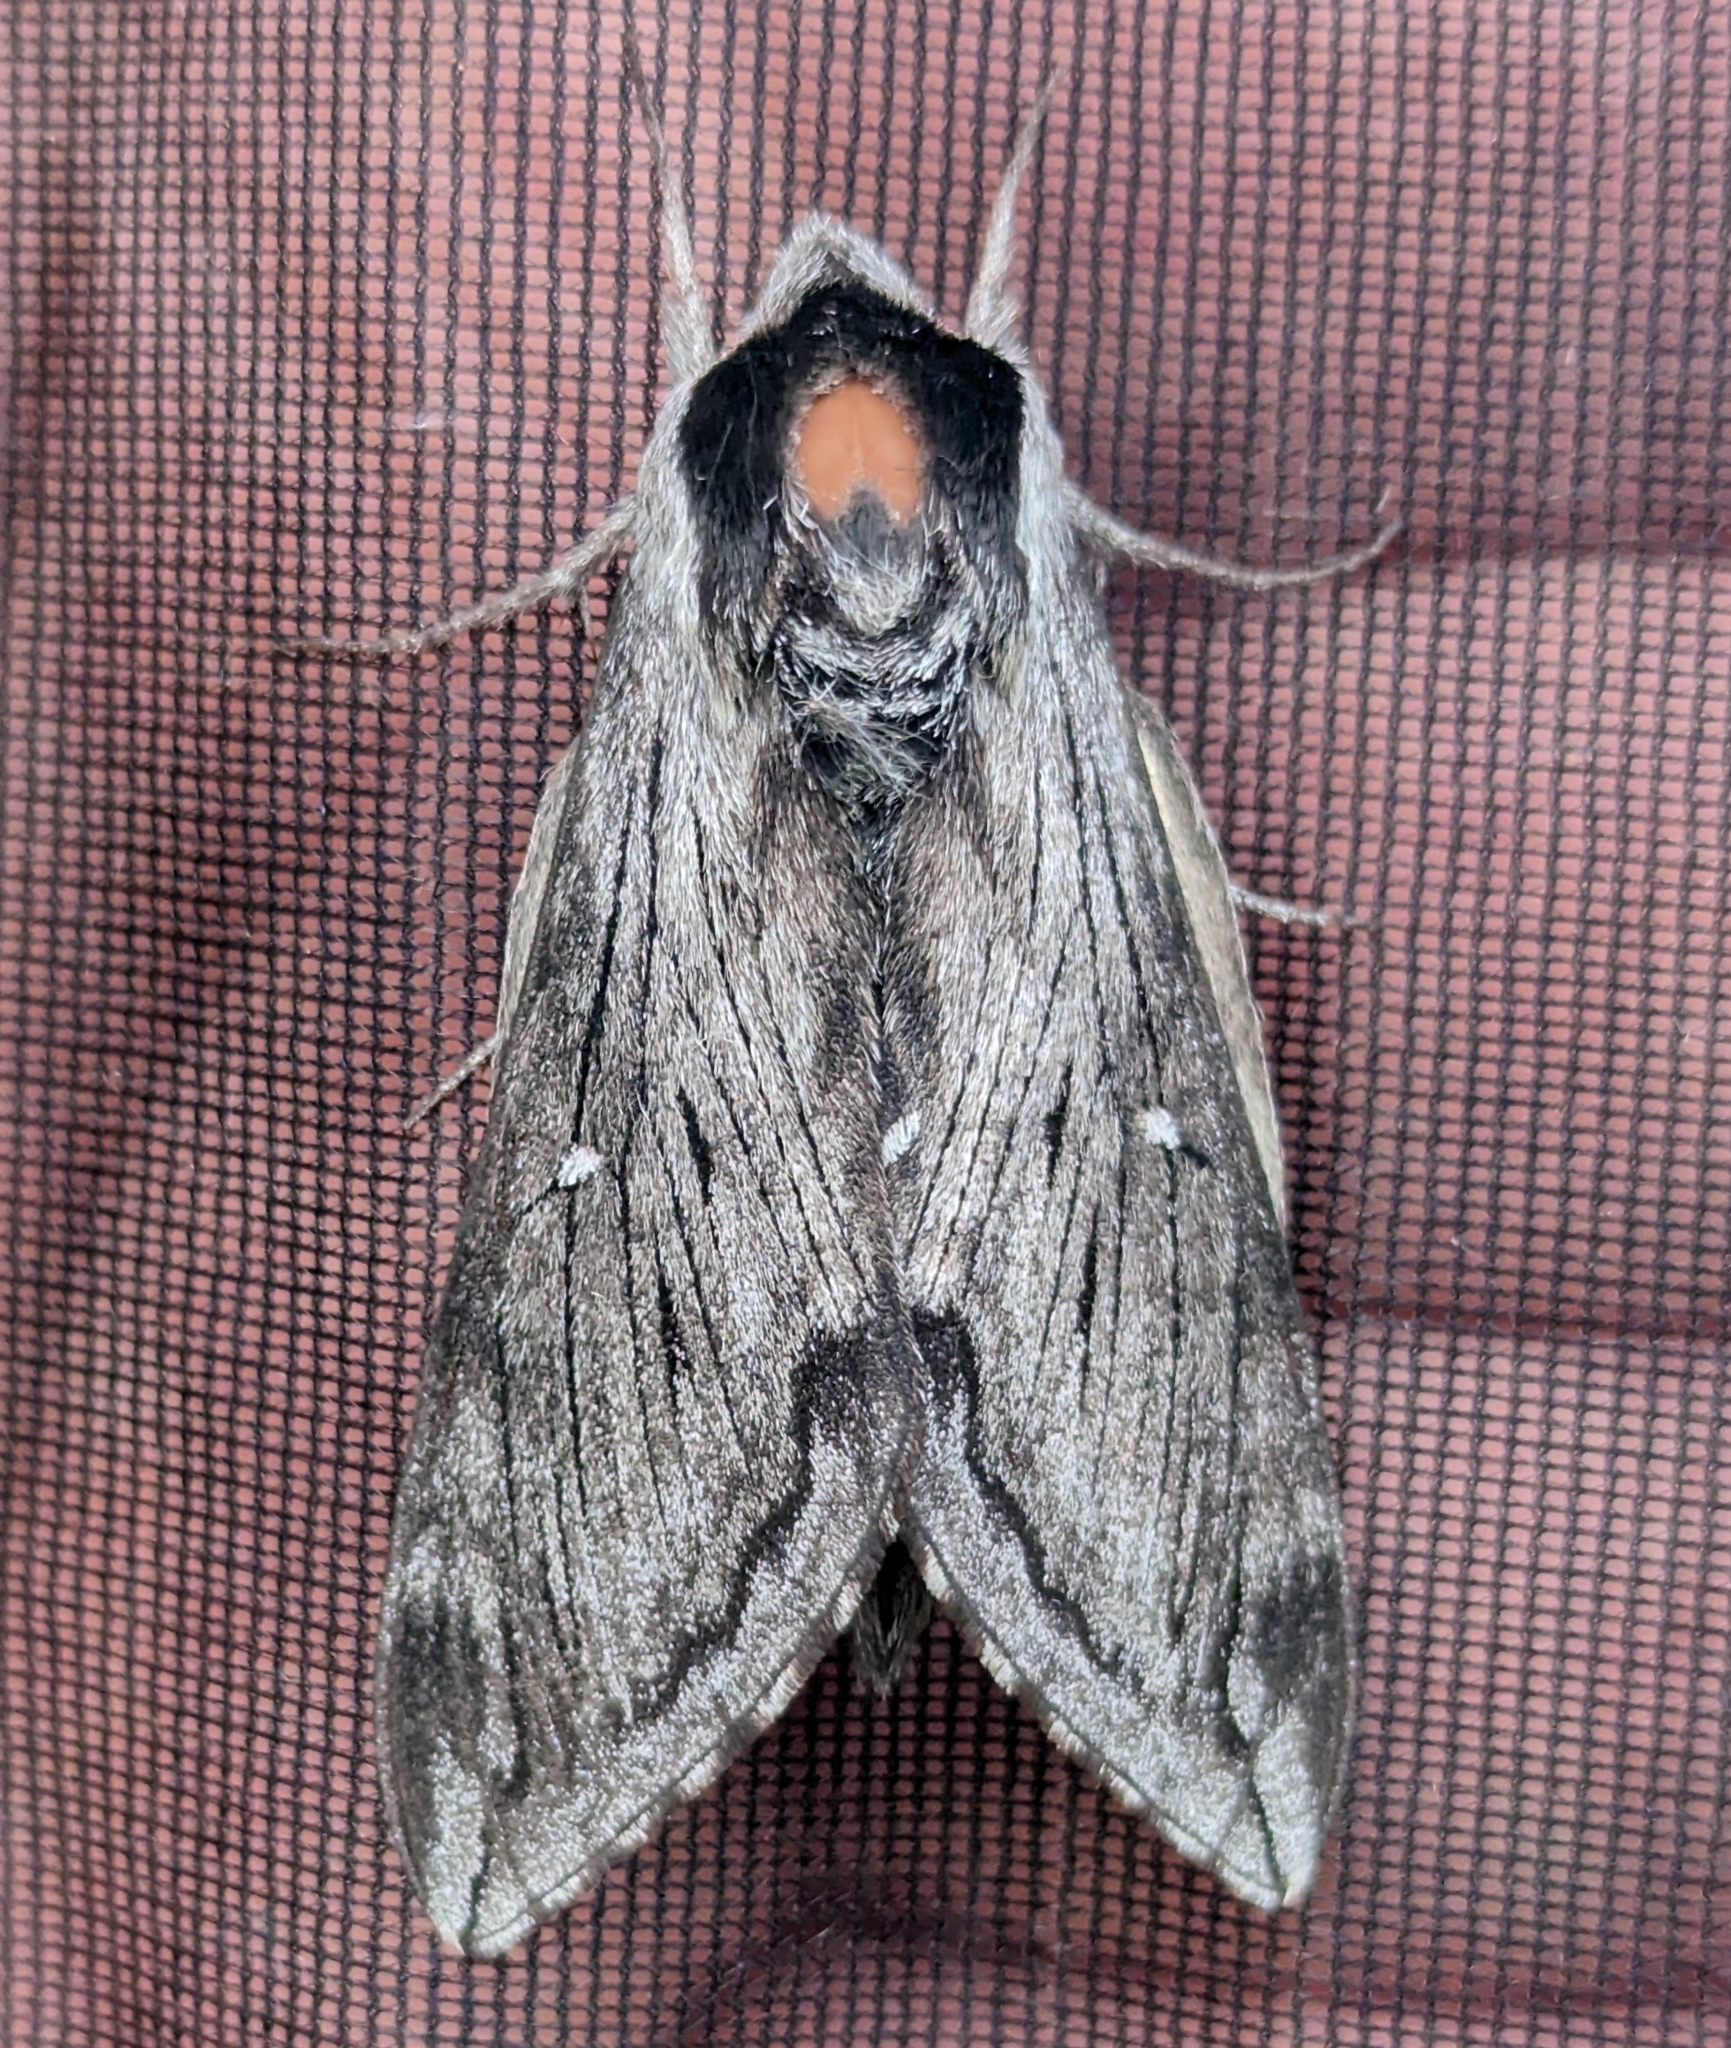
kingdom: Animalia
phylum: Arthropoda
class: Insecta
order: Lepidoptera
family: Sphingidae
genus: Sphinx
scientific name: Sphinx poecila
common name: Northern apple sphinx
